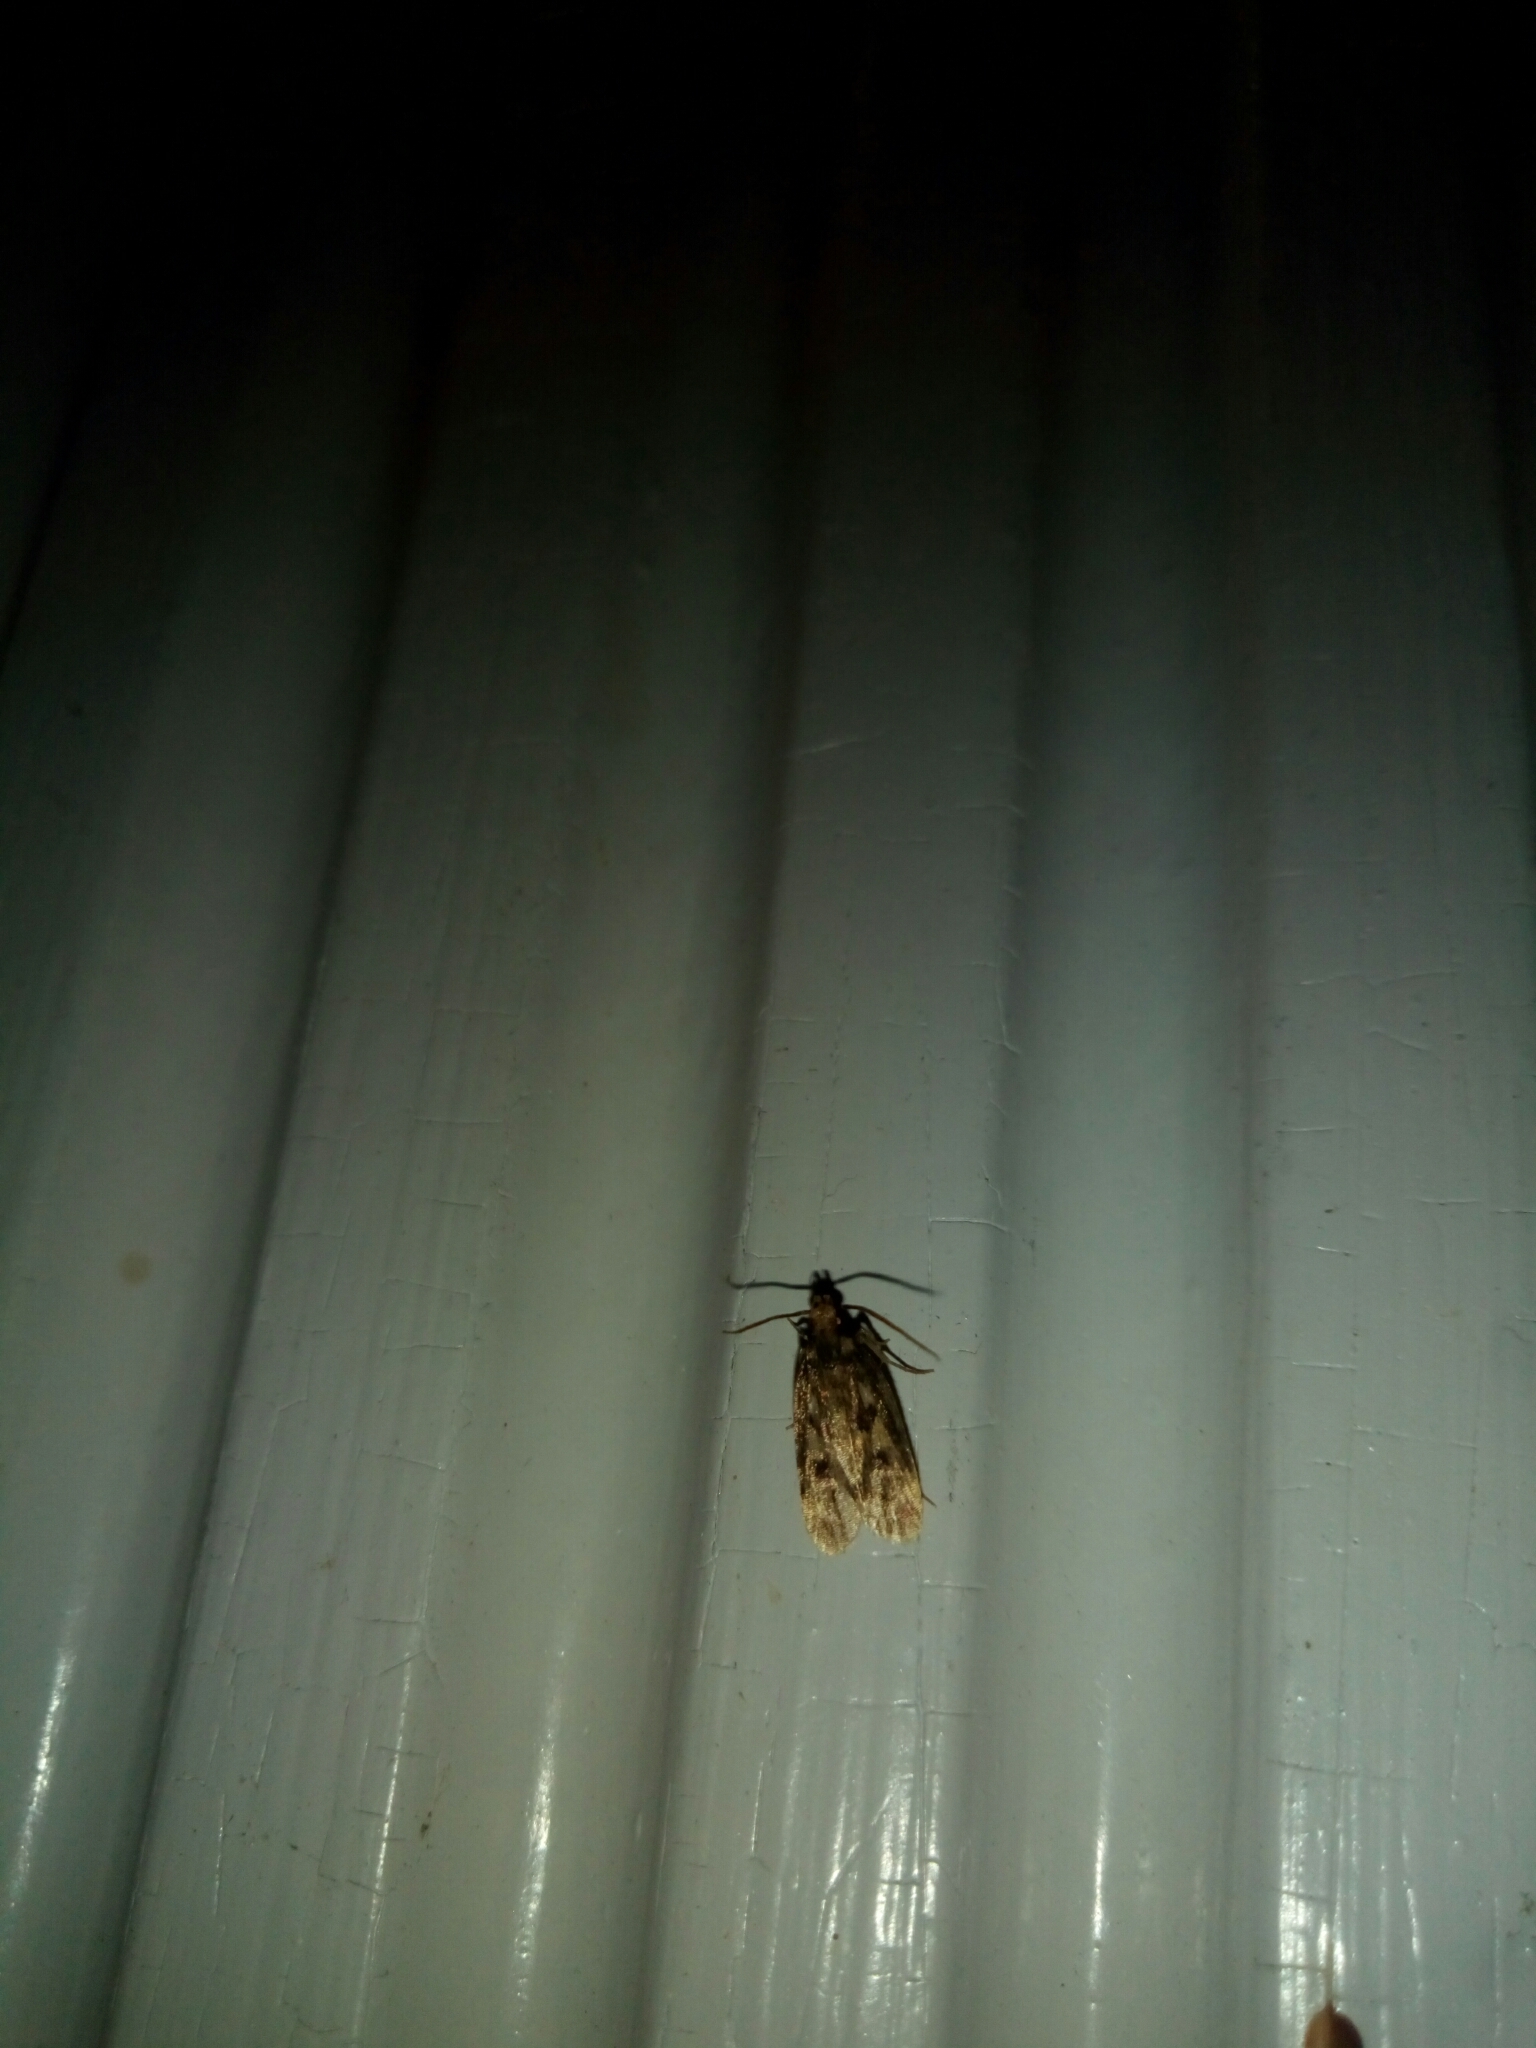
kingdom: Animalia
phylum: Arthropoda
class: Insecta
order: Lepidoptera
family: Lecithoceridae
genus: Martyringa
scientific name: Martyringa latipennis
